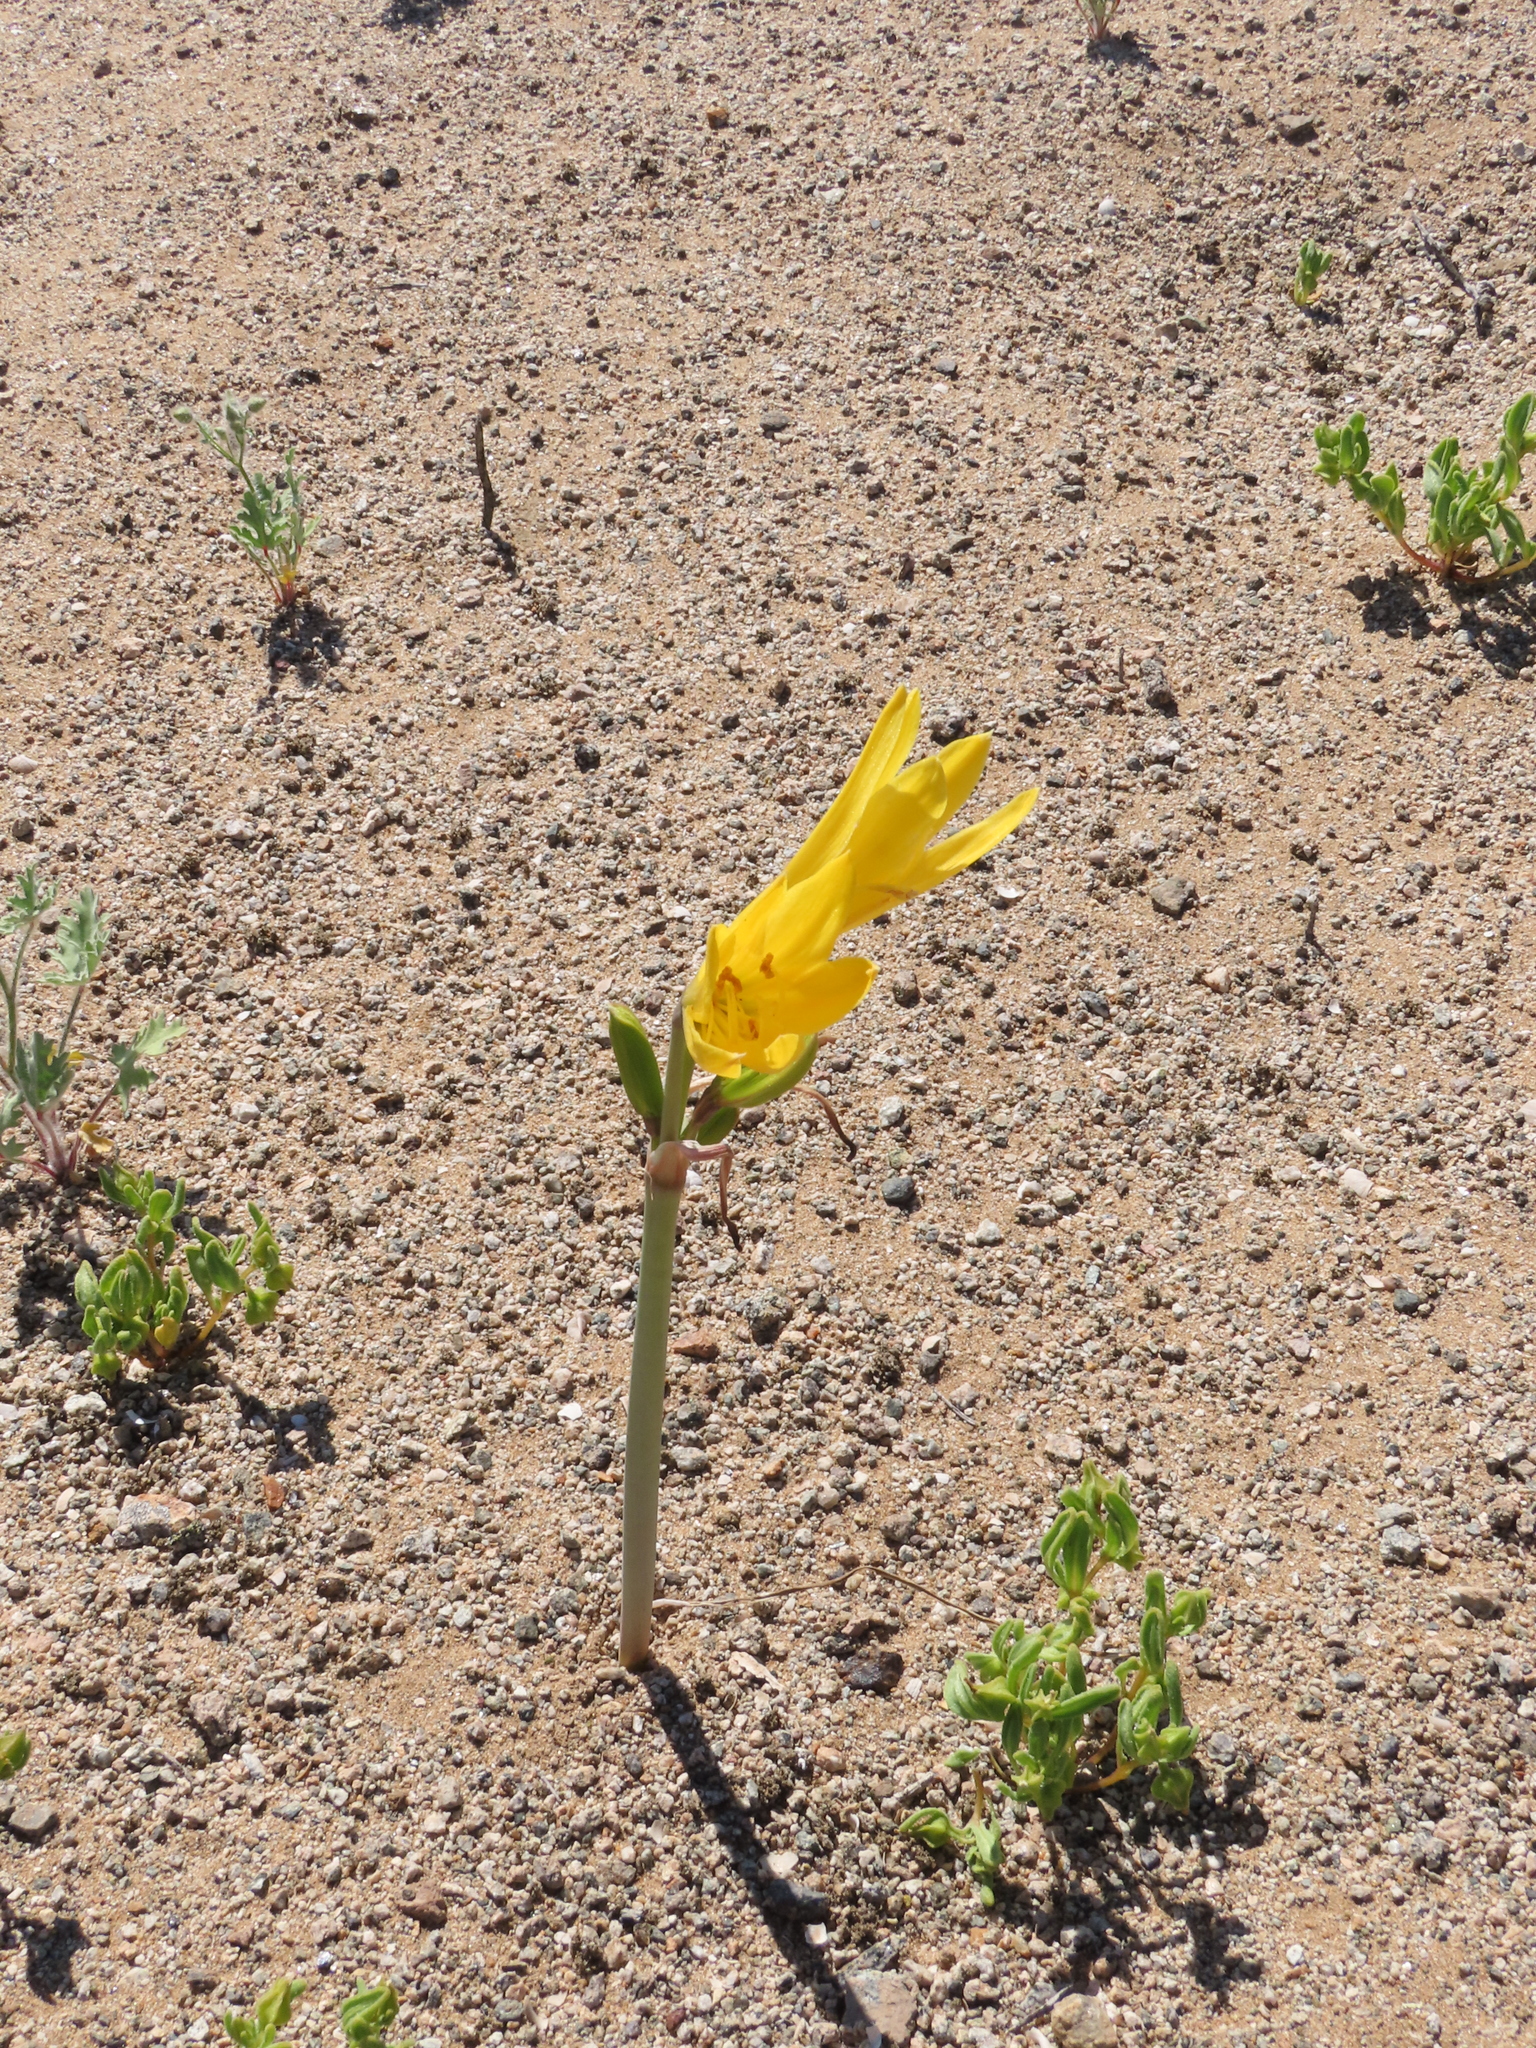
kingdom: Plantae
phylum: Tracheophyta
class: Liliopsida
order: Asparagales
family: Amaryllidaceae
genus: Zephyranthes
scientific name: Zephyranthes bagnoldii
